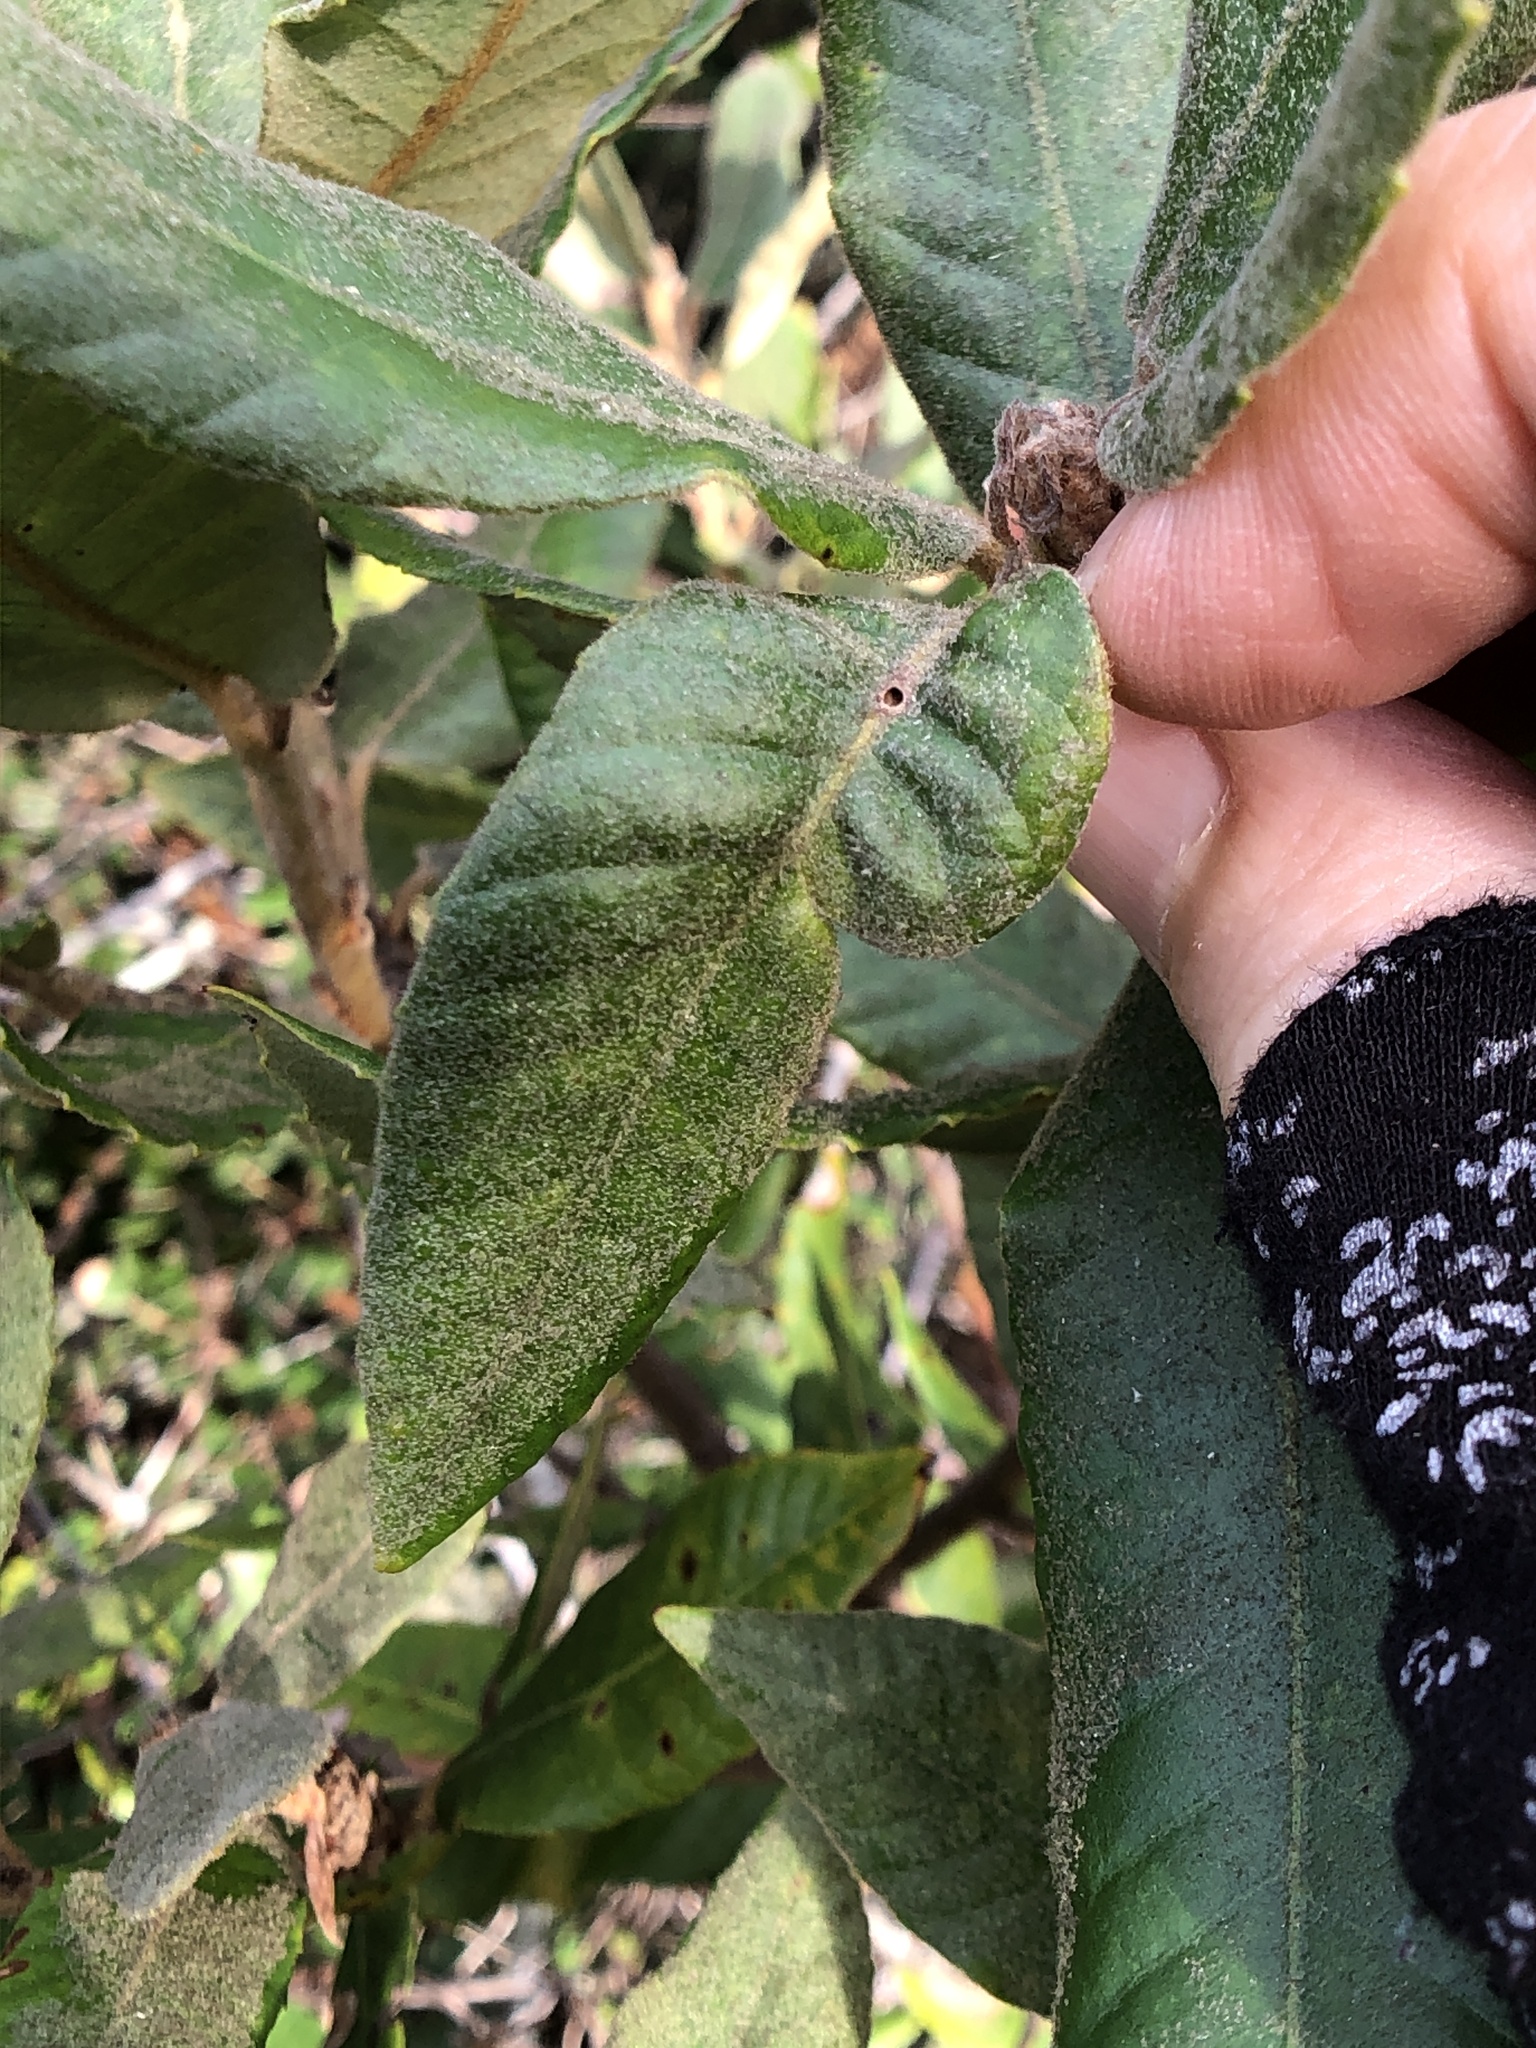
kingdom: Plantae
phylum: Tracheophyta
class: Magnoliopsida
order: Fagales
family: Fagaceae
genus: Notholithocarpus
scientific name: Notholithocarpus densiflorus
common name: Tan bark oak
